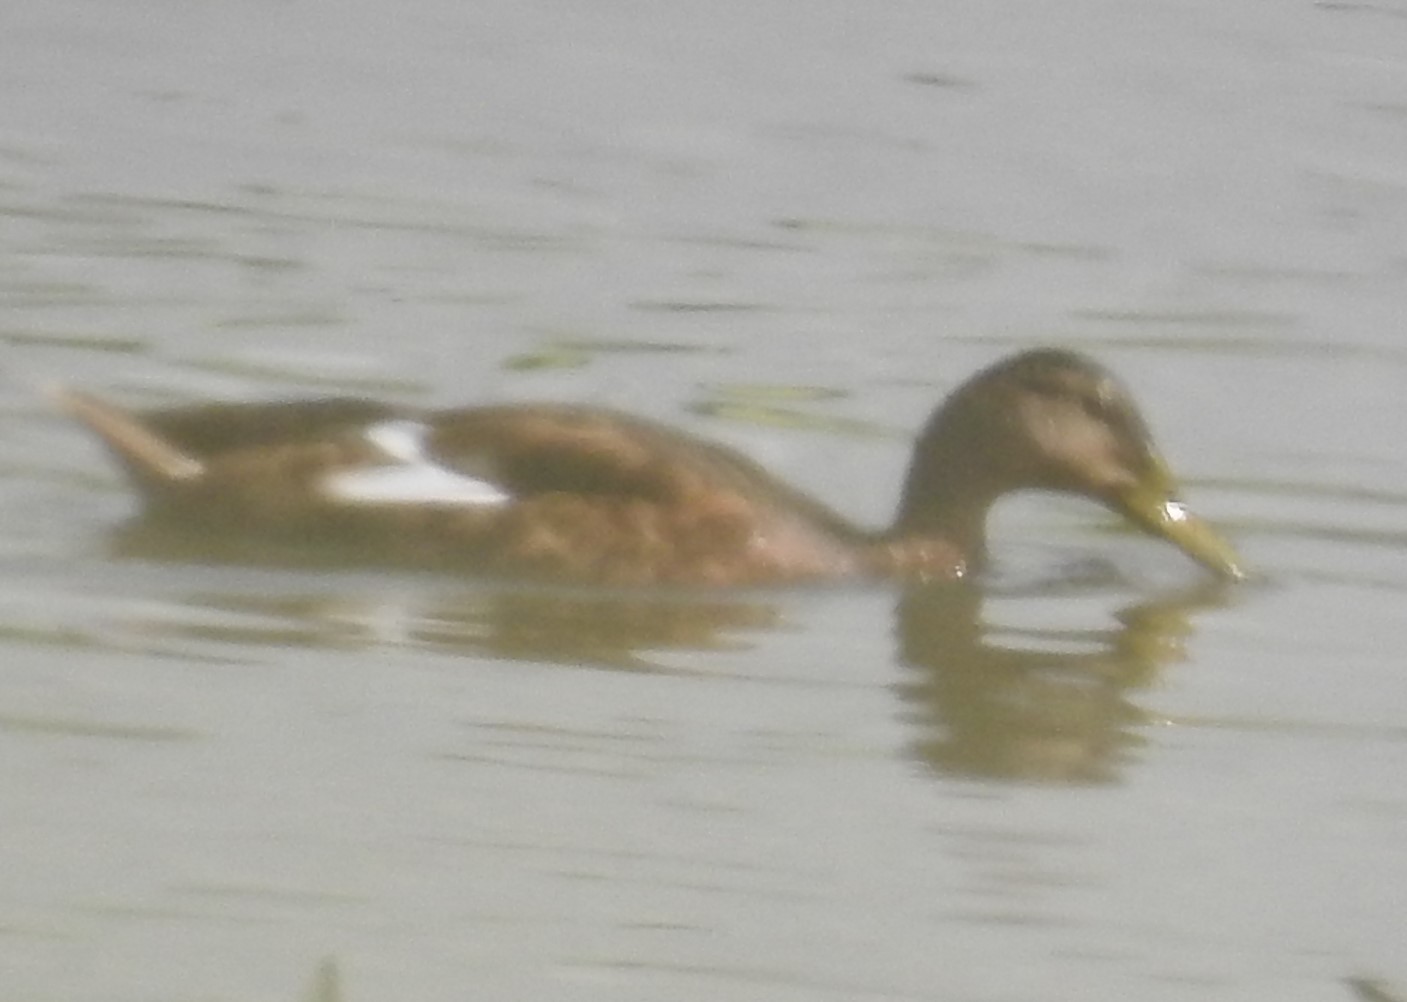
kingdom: Animalia
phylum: Chordata
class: Aves
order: Anseriformes
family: Anatidae
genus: Anas
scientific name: Anas platyrhynchos
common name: Mallard
